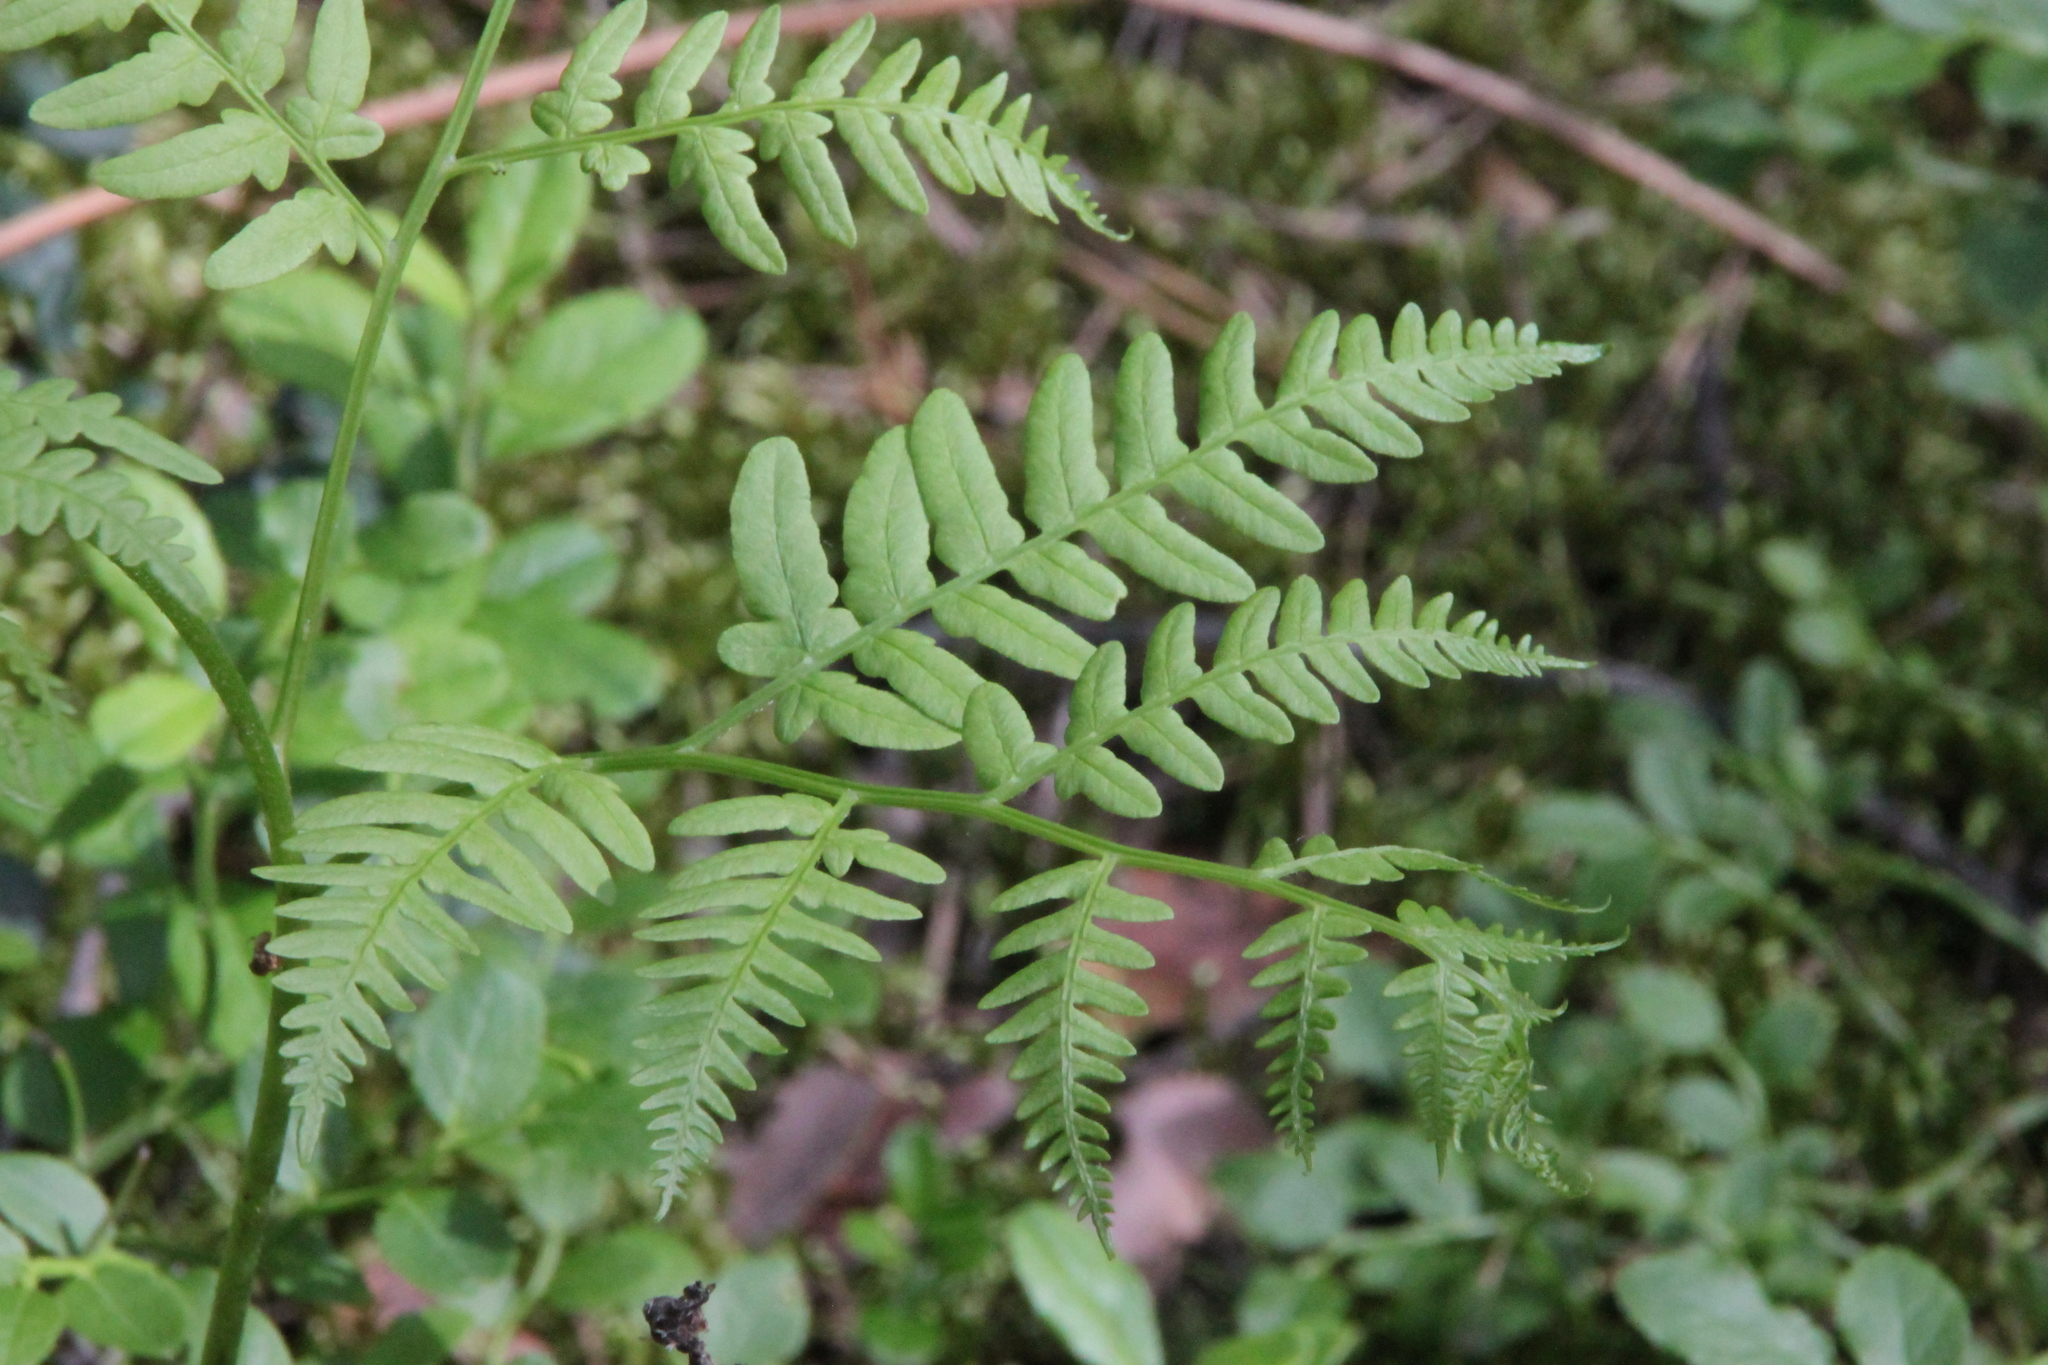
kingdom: Plantae
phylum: Tracheophyta
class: Polypodiopsida
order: Polypodiales
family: Dennstaedtiaceae
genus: Pteridium
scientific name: Pteridium aquilinum
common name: Bracken
